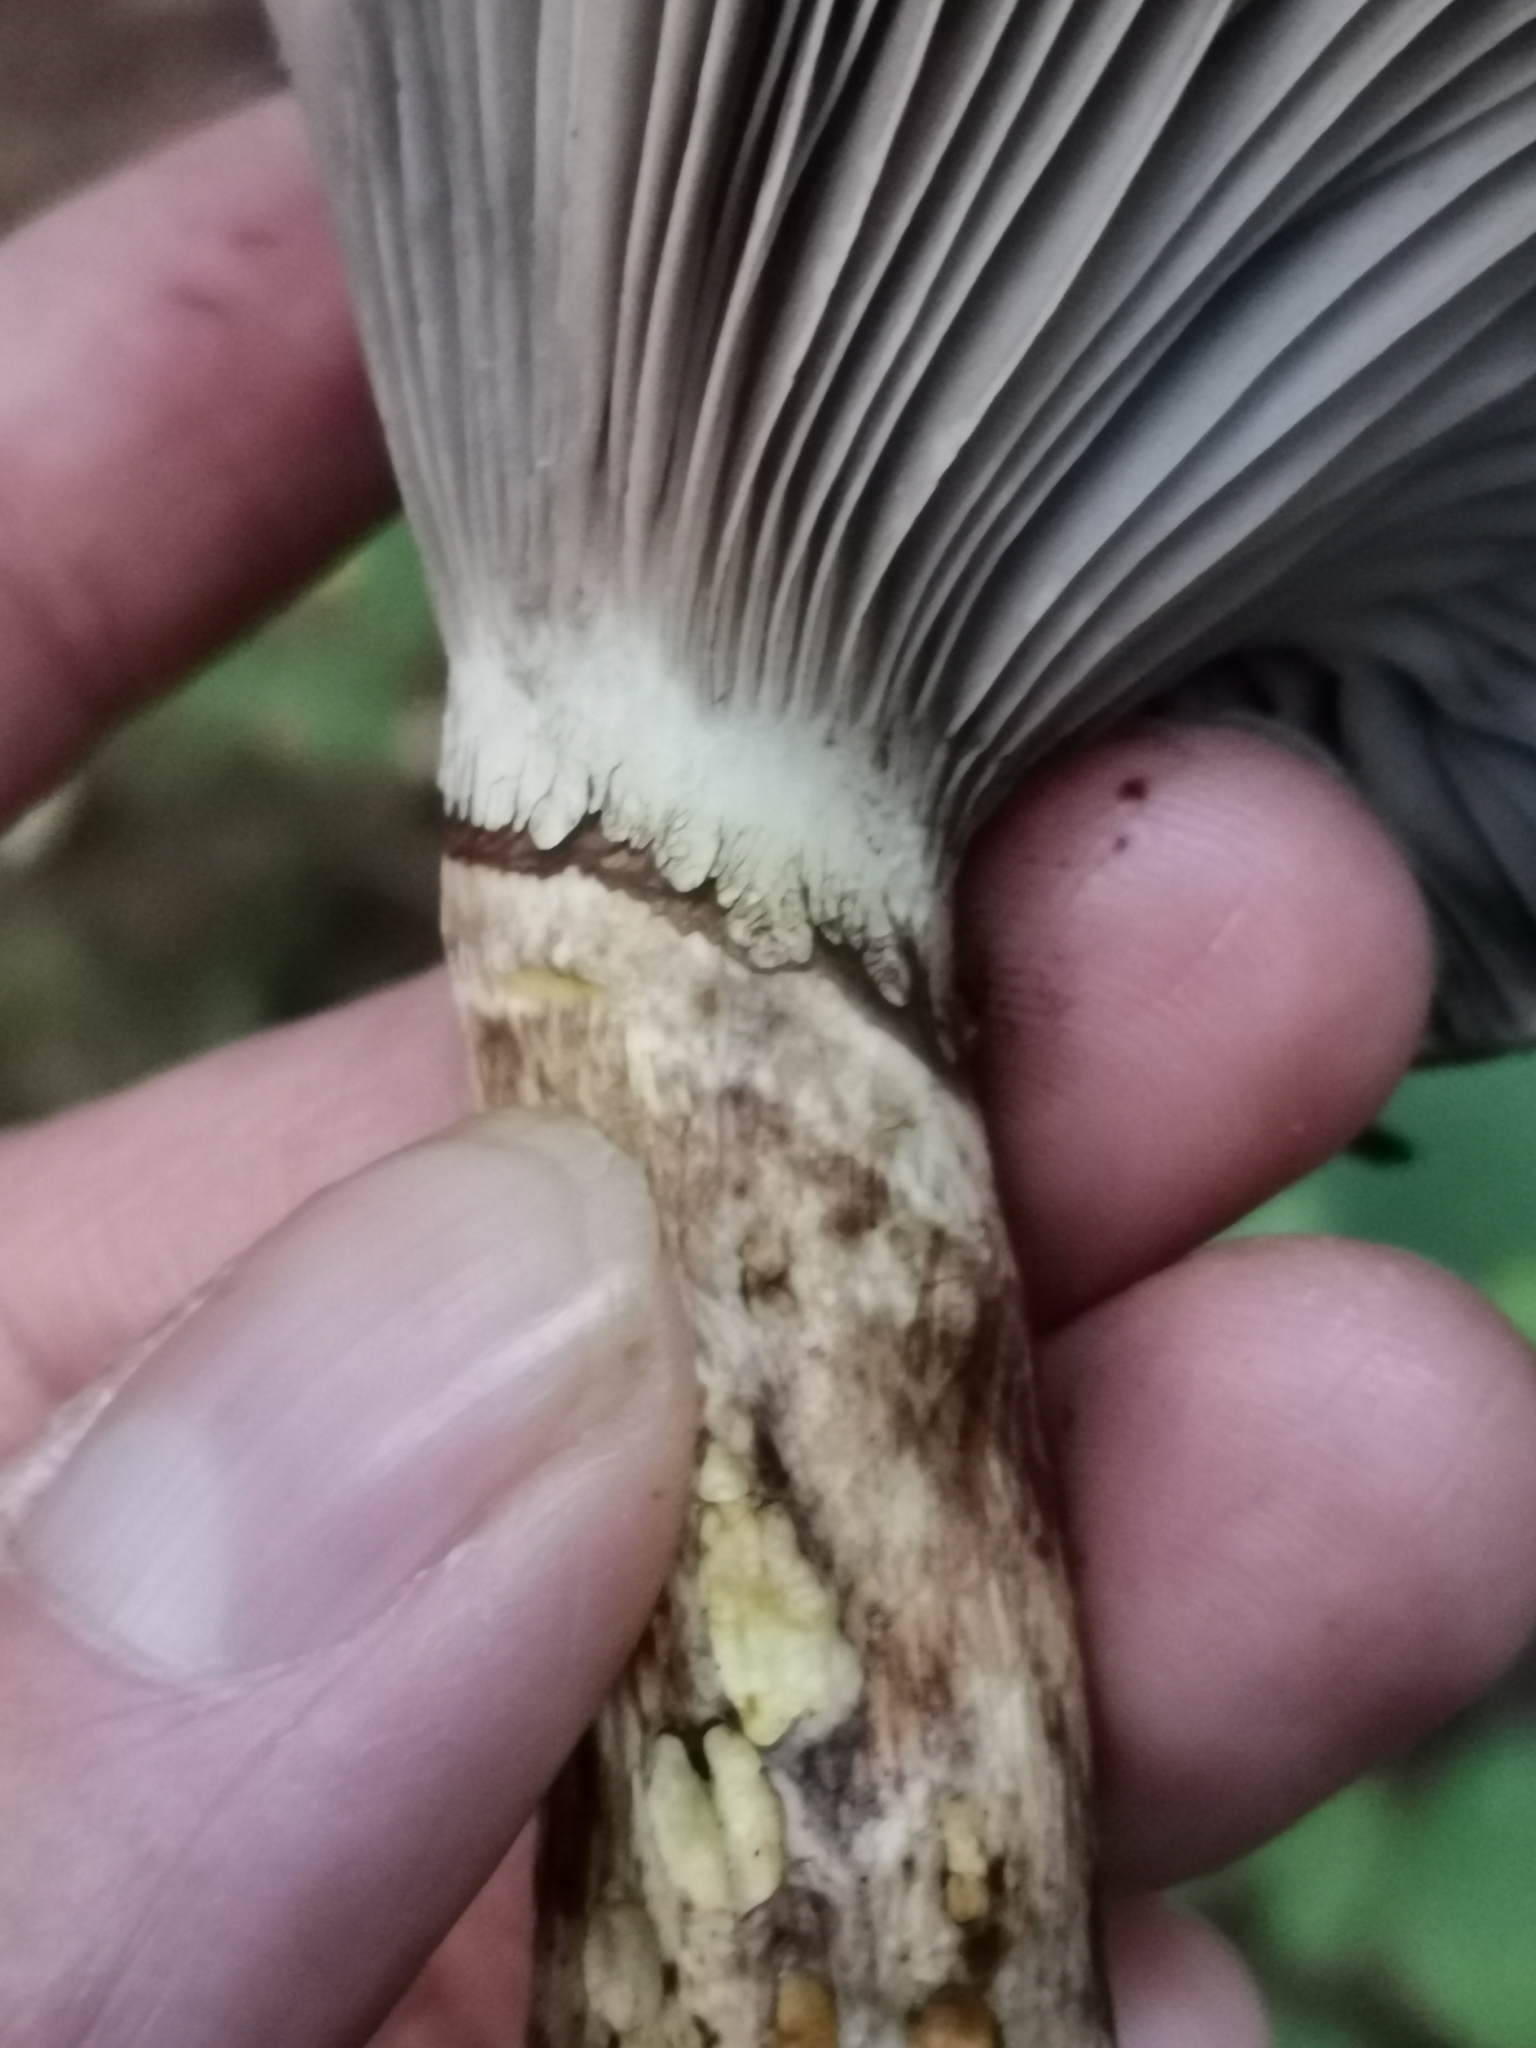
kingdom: Fungi
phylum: Basidiomycota
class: Agaricomycetes
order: Boletales
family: Gomphidiaceae
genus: Gomphidius
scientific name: Gomphidius glutinosus
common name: Slimy spike
